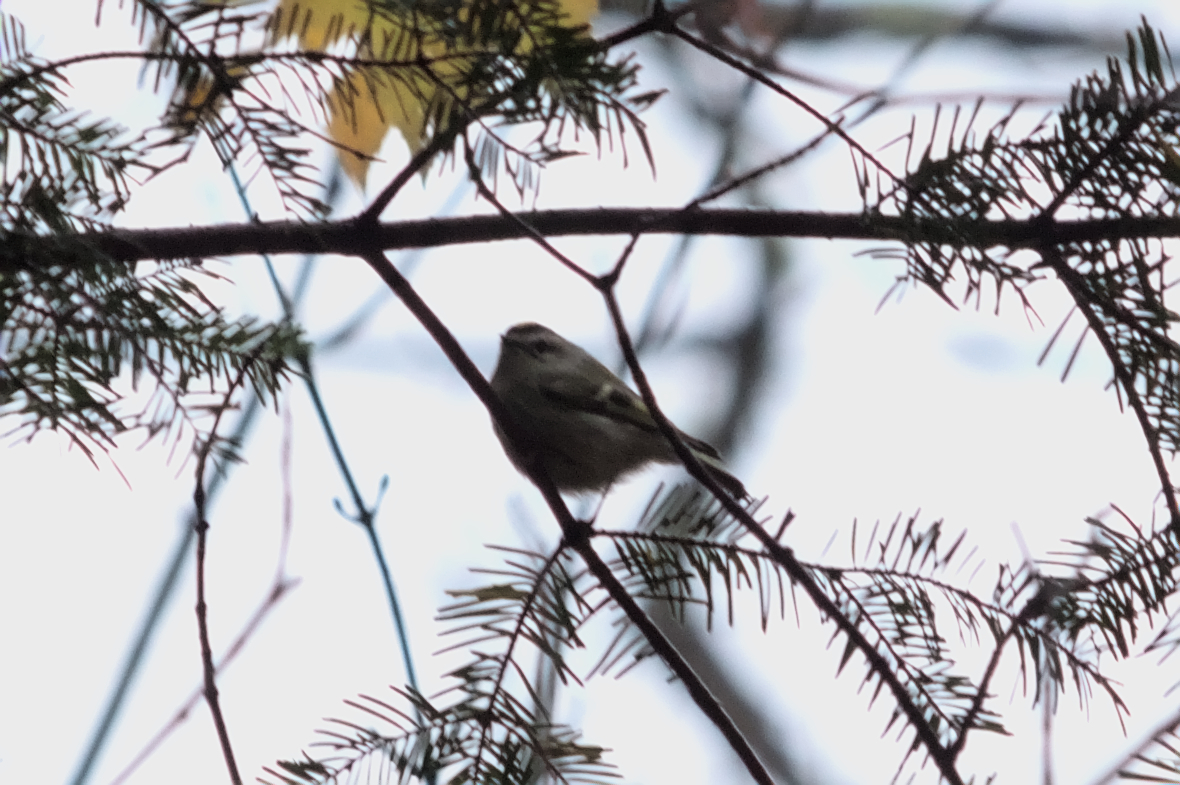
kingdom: Animalia
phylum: Chordata
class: Aves
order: Passeriformes
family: Regulidae
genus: Regulus
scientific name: Regulus satrapa
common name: Golden-crowned kinglet
